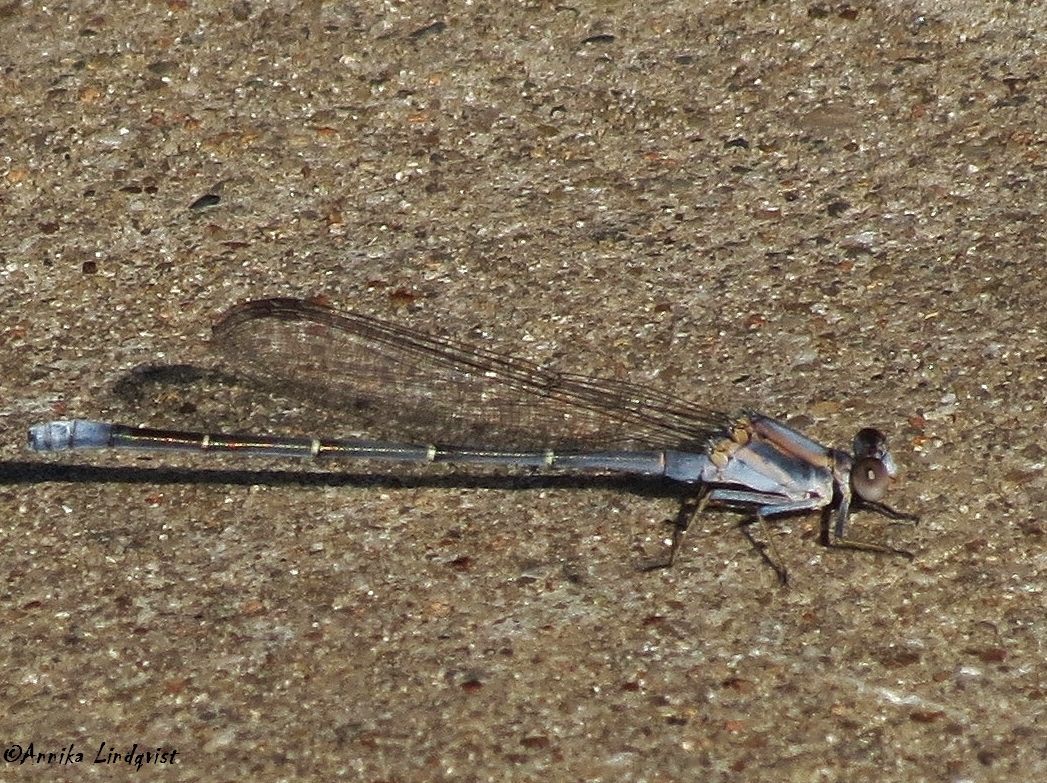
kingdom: Animalia
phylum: Arthropoda
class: Insecta
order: Odonata
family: Coenagrionidae
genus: Argia
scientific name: Argia moesta
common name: Powdered dancer
